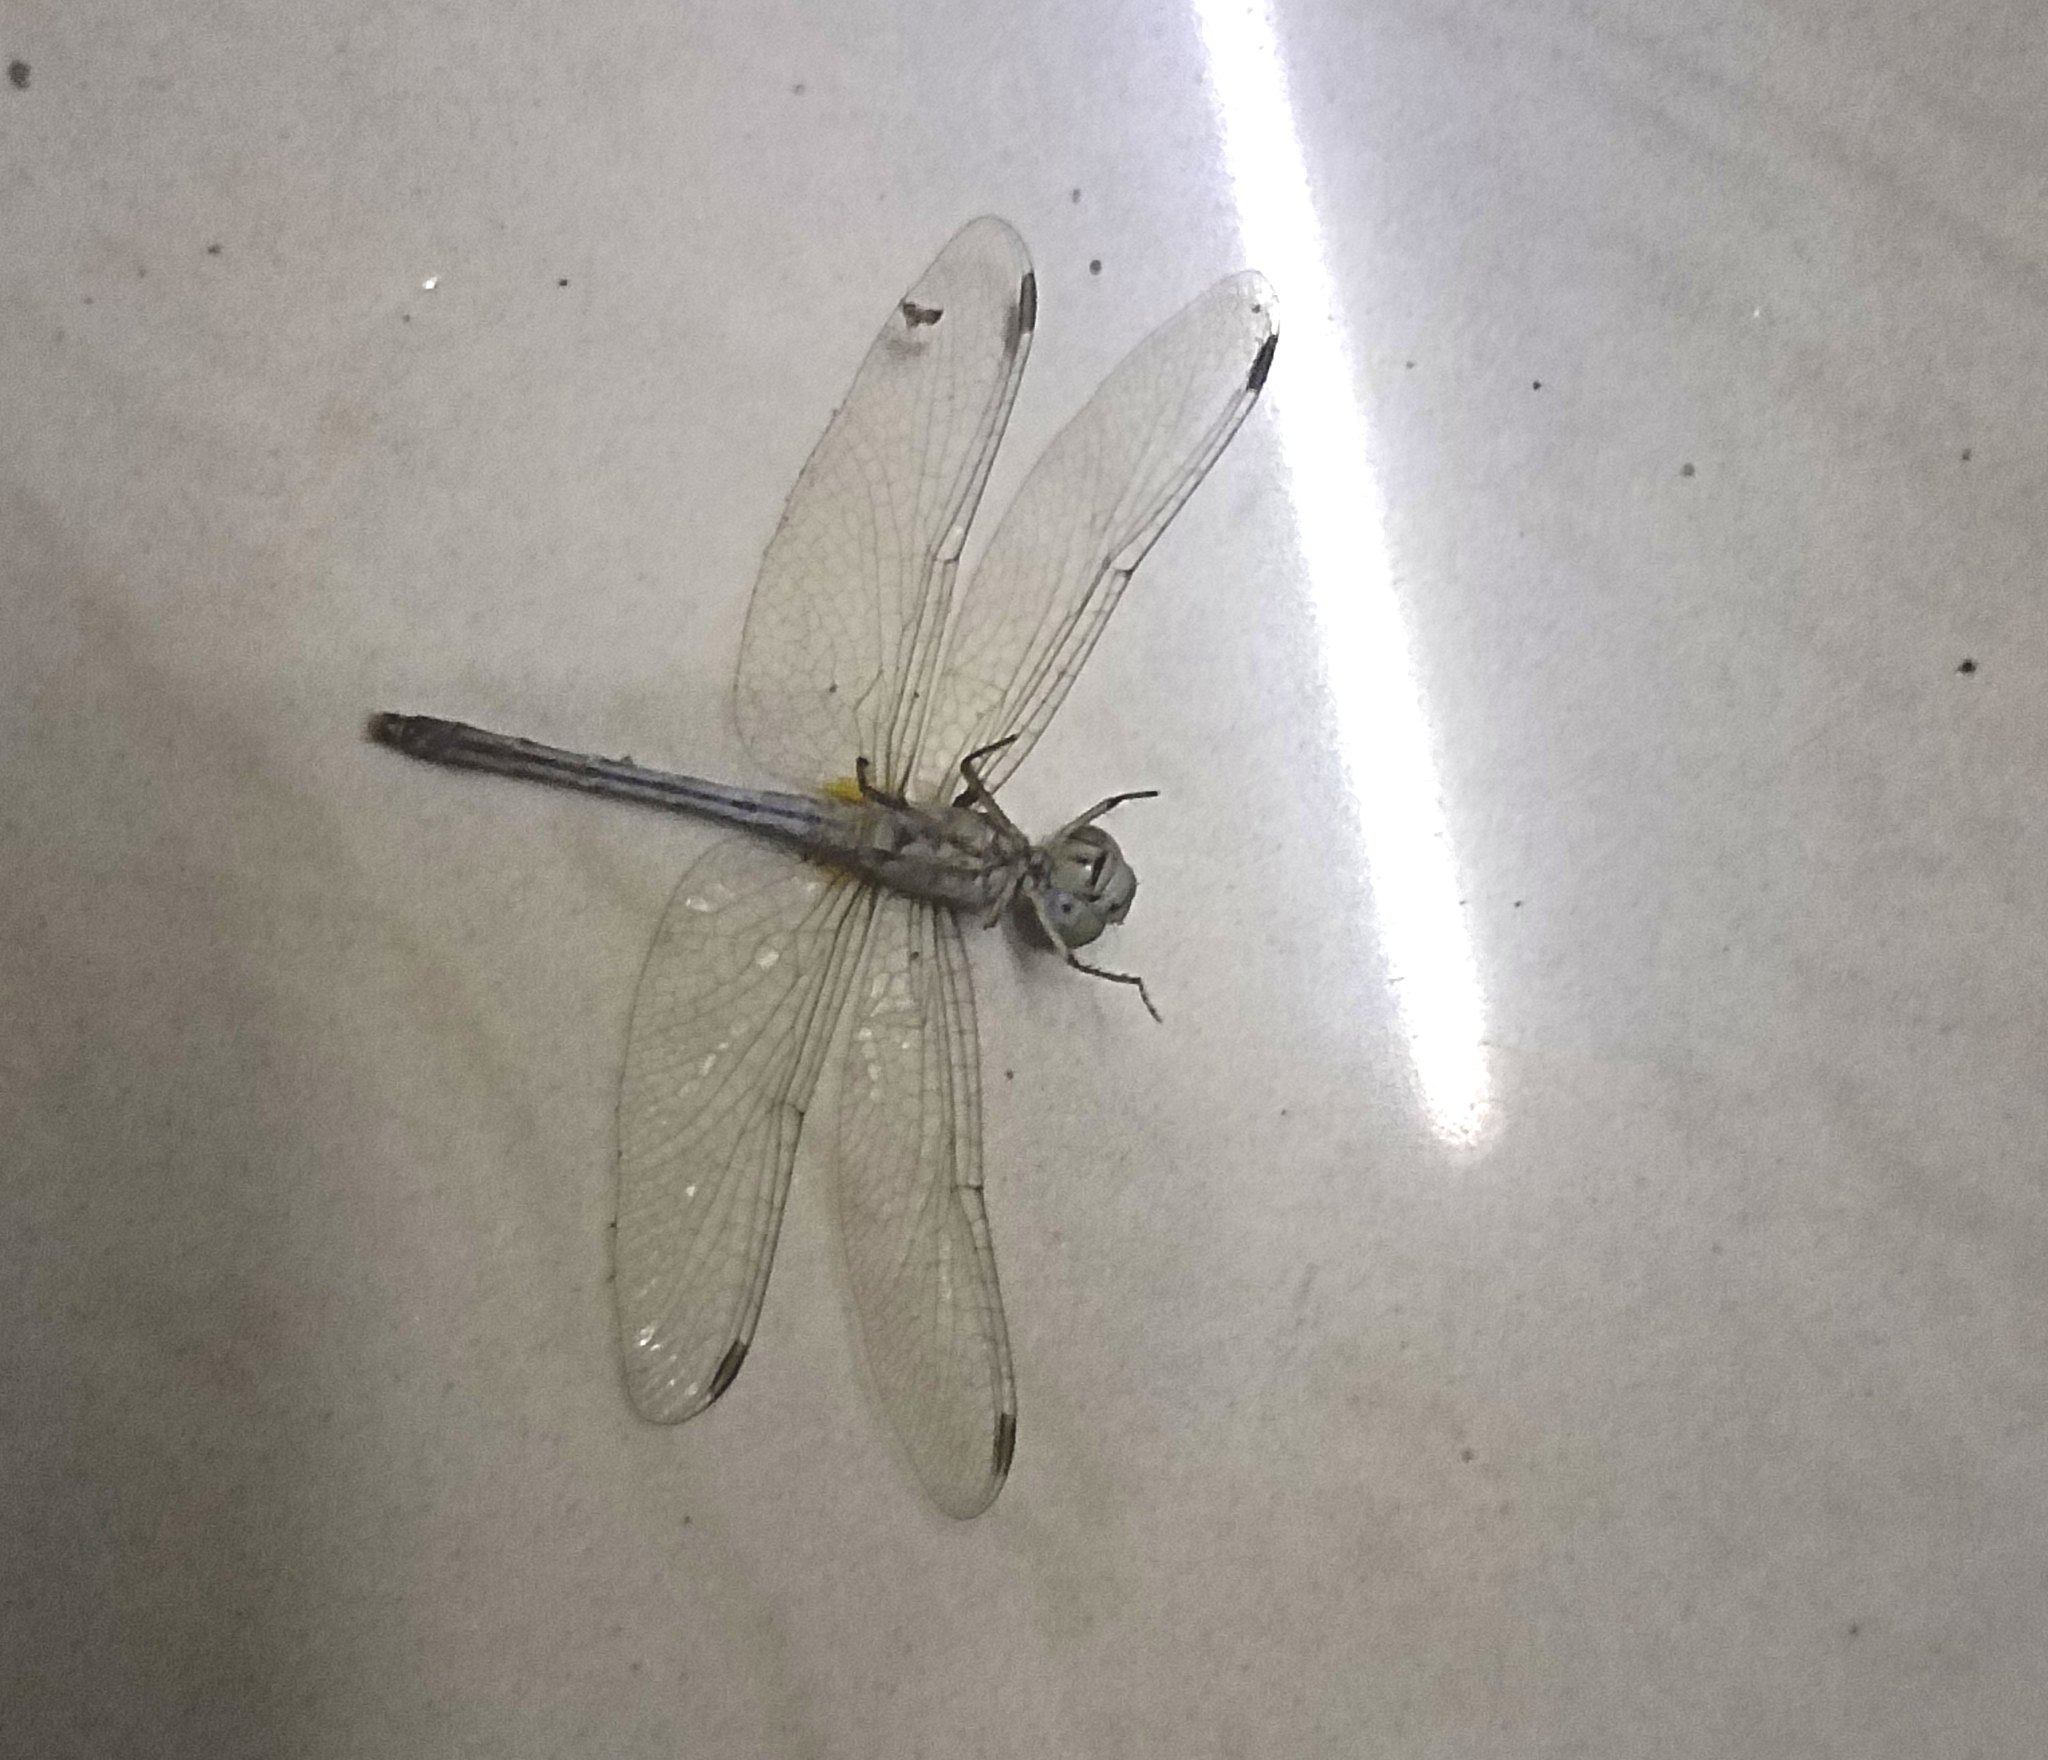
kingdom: Animalia
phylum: Arthropoda
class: Insecta
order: Odonata
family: Libellulidae
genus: Diplacodes
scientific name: Diplacodes trivialis
